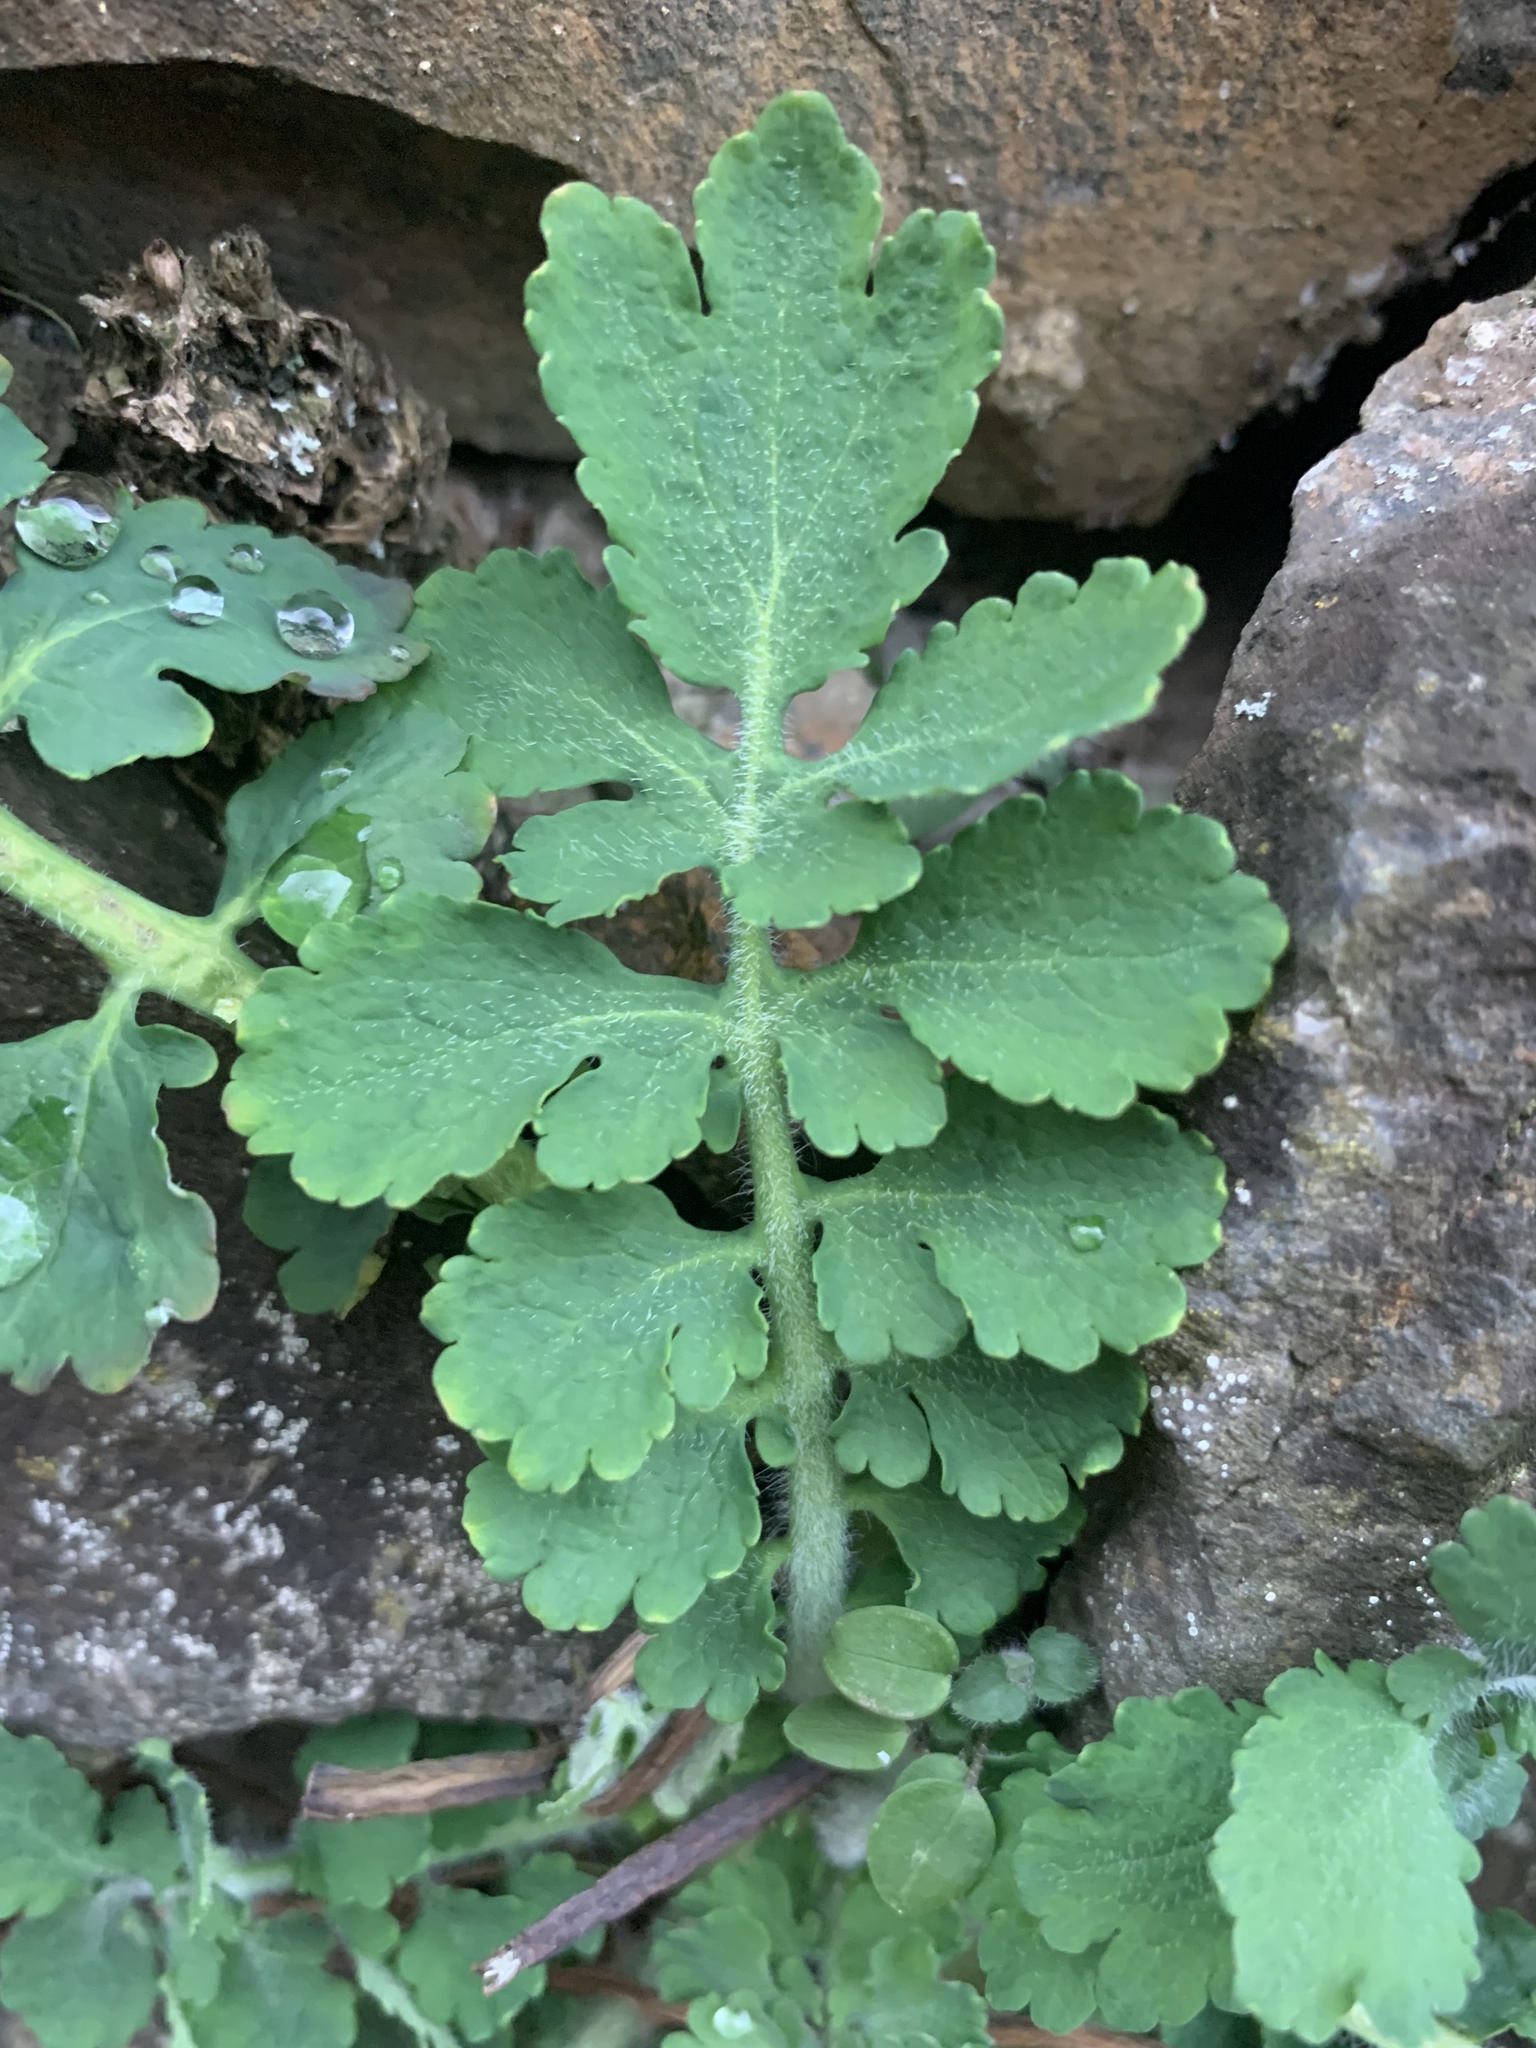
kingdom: Plantae
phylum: Tracheophyta
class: Magnoliopsida
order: Ranunculales
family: Papaveraceae
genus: Chelidonium
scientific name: Chelidonium majus
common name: Greater celandine
